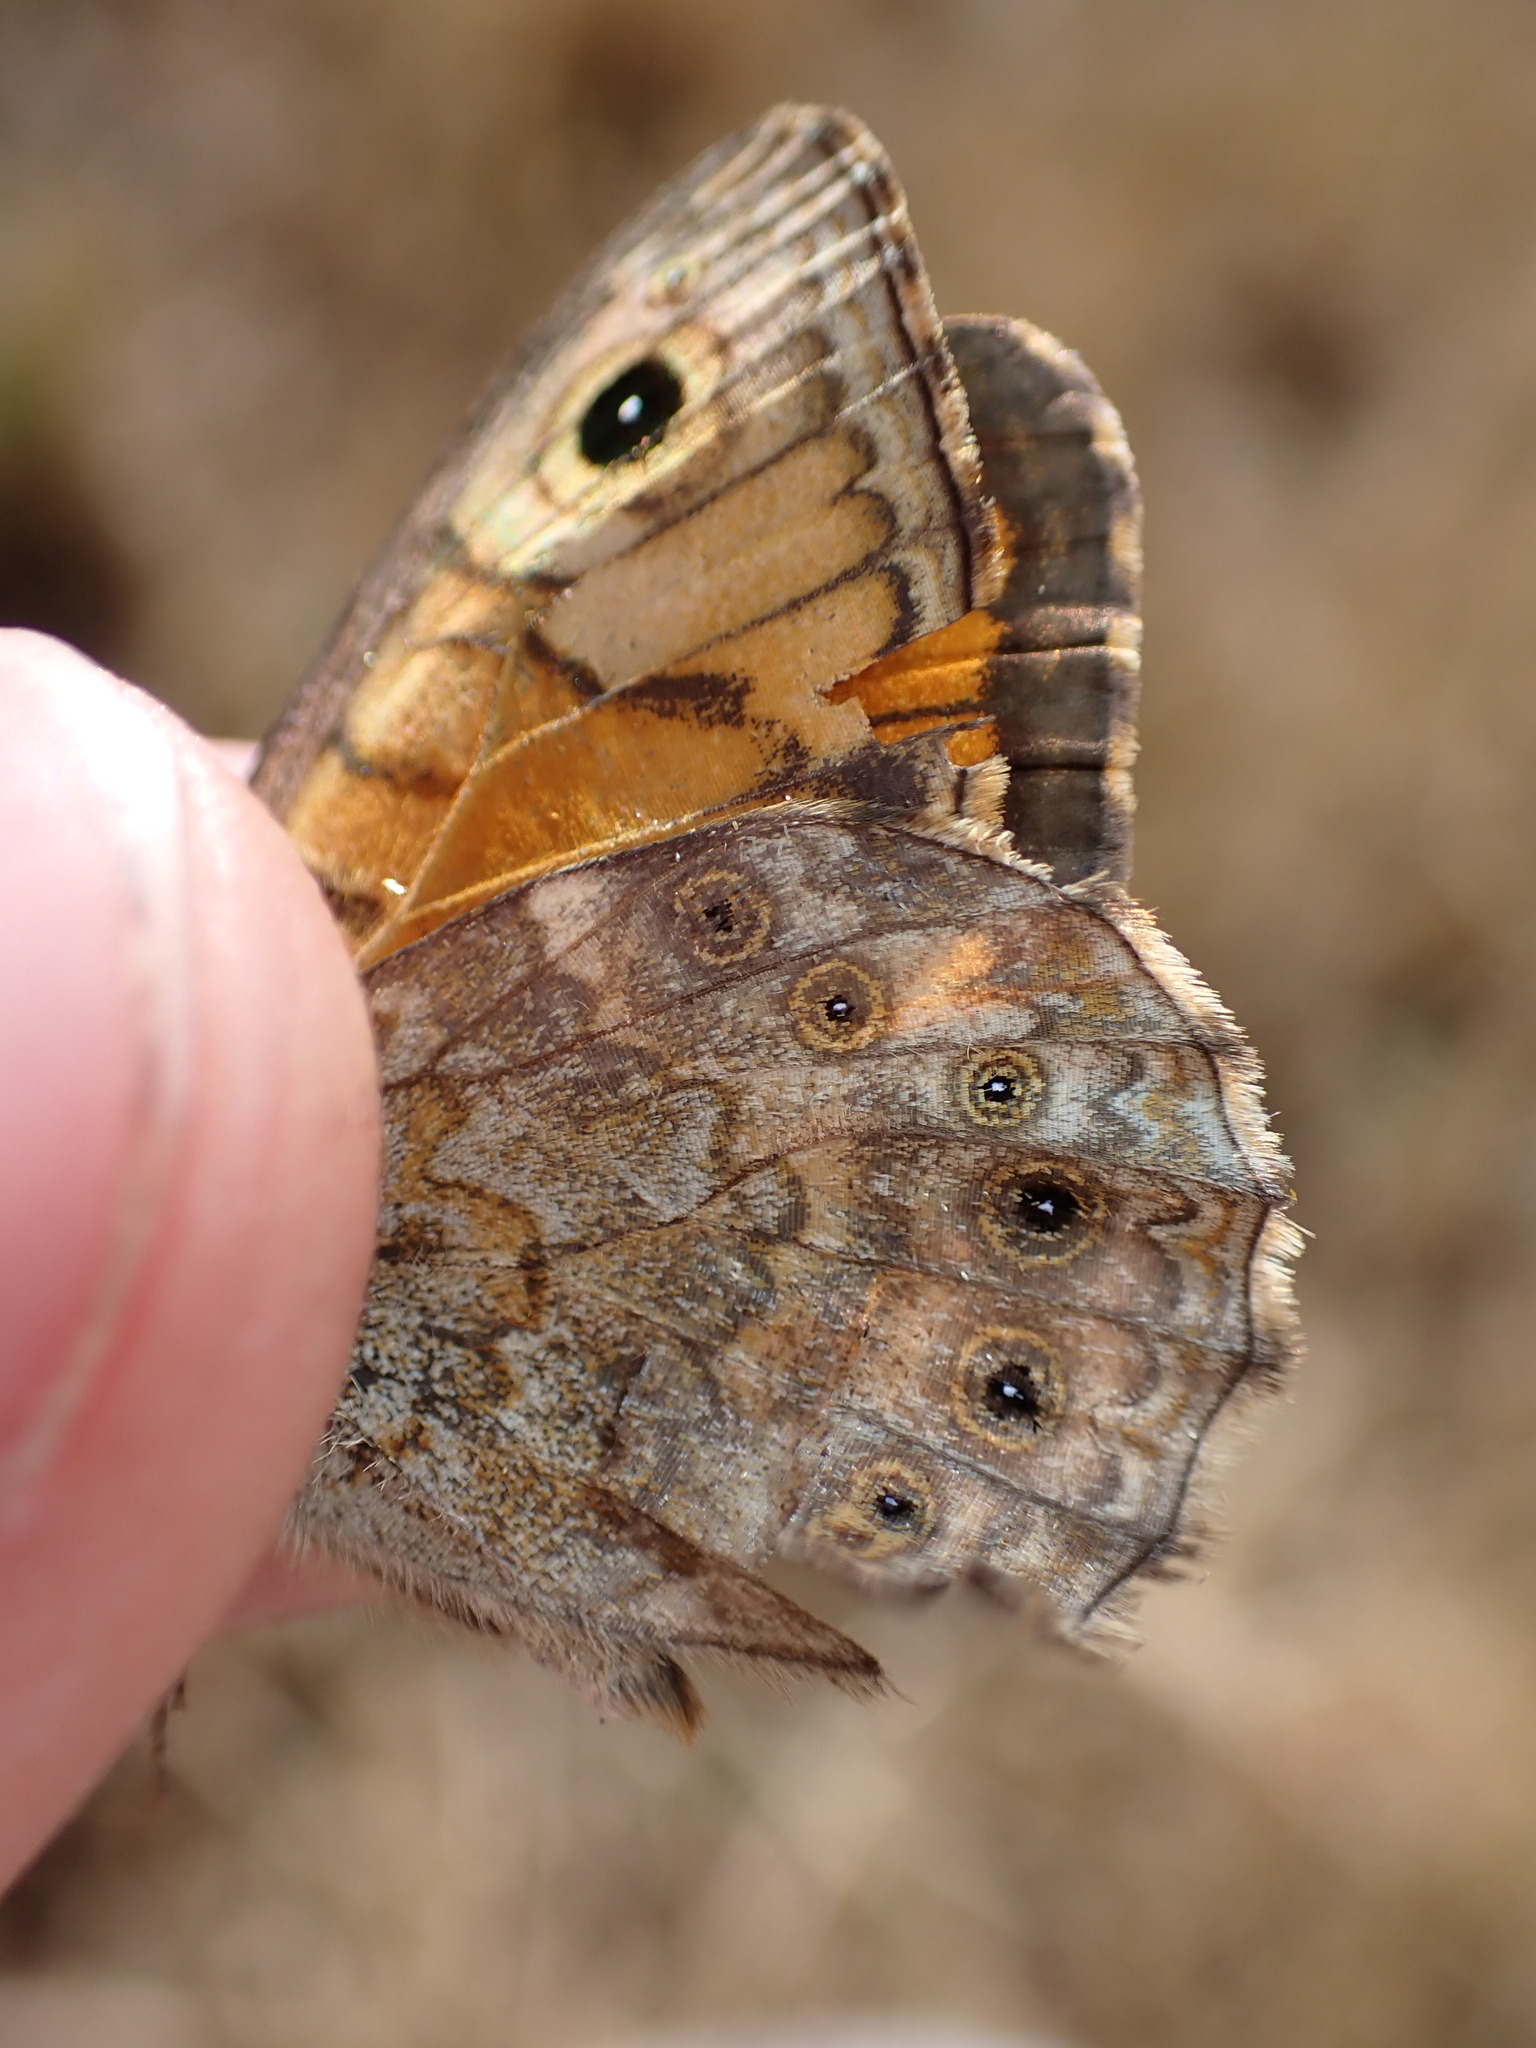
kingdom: Animalia
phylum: Arthropoda
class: Insecta
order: Lepidoptera
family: Nymphalidae
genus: Pararge
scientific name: Pararge Lasiommata megera
